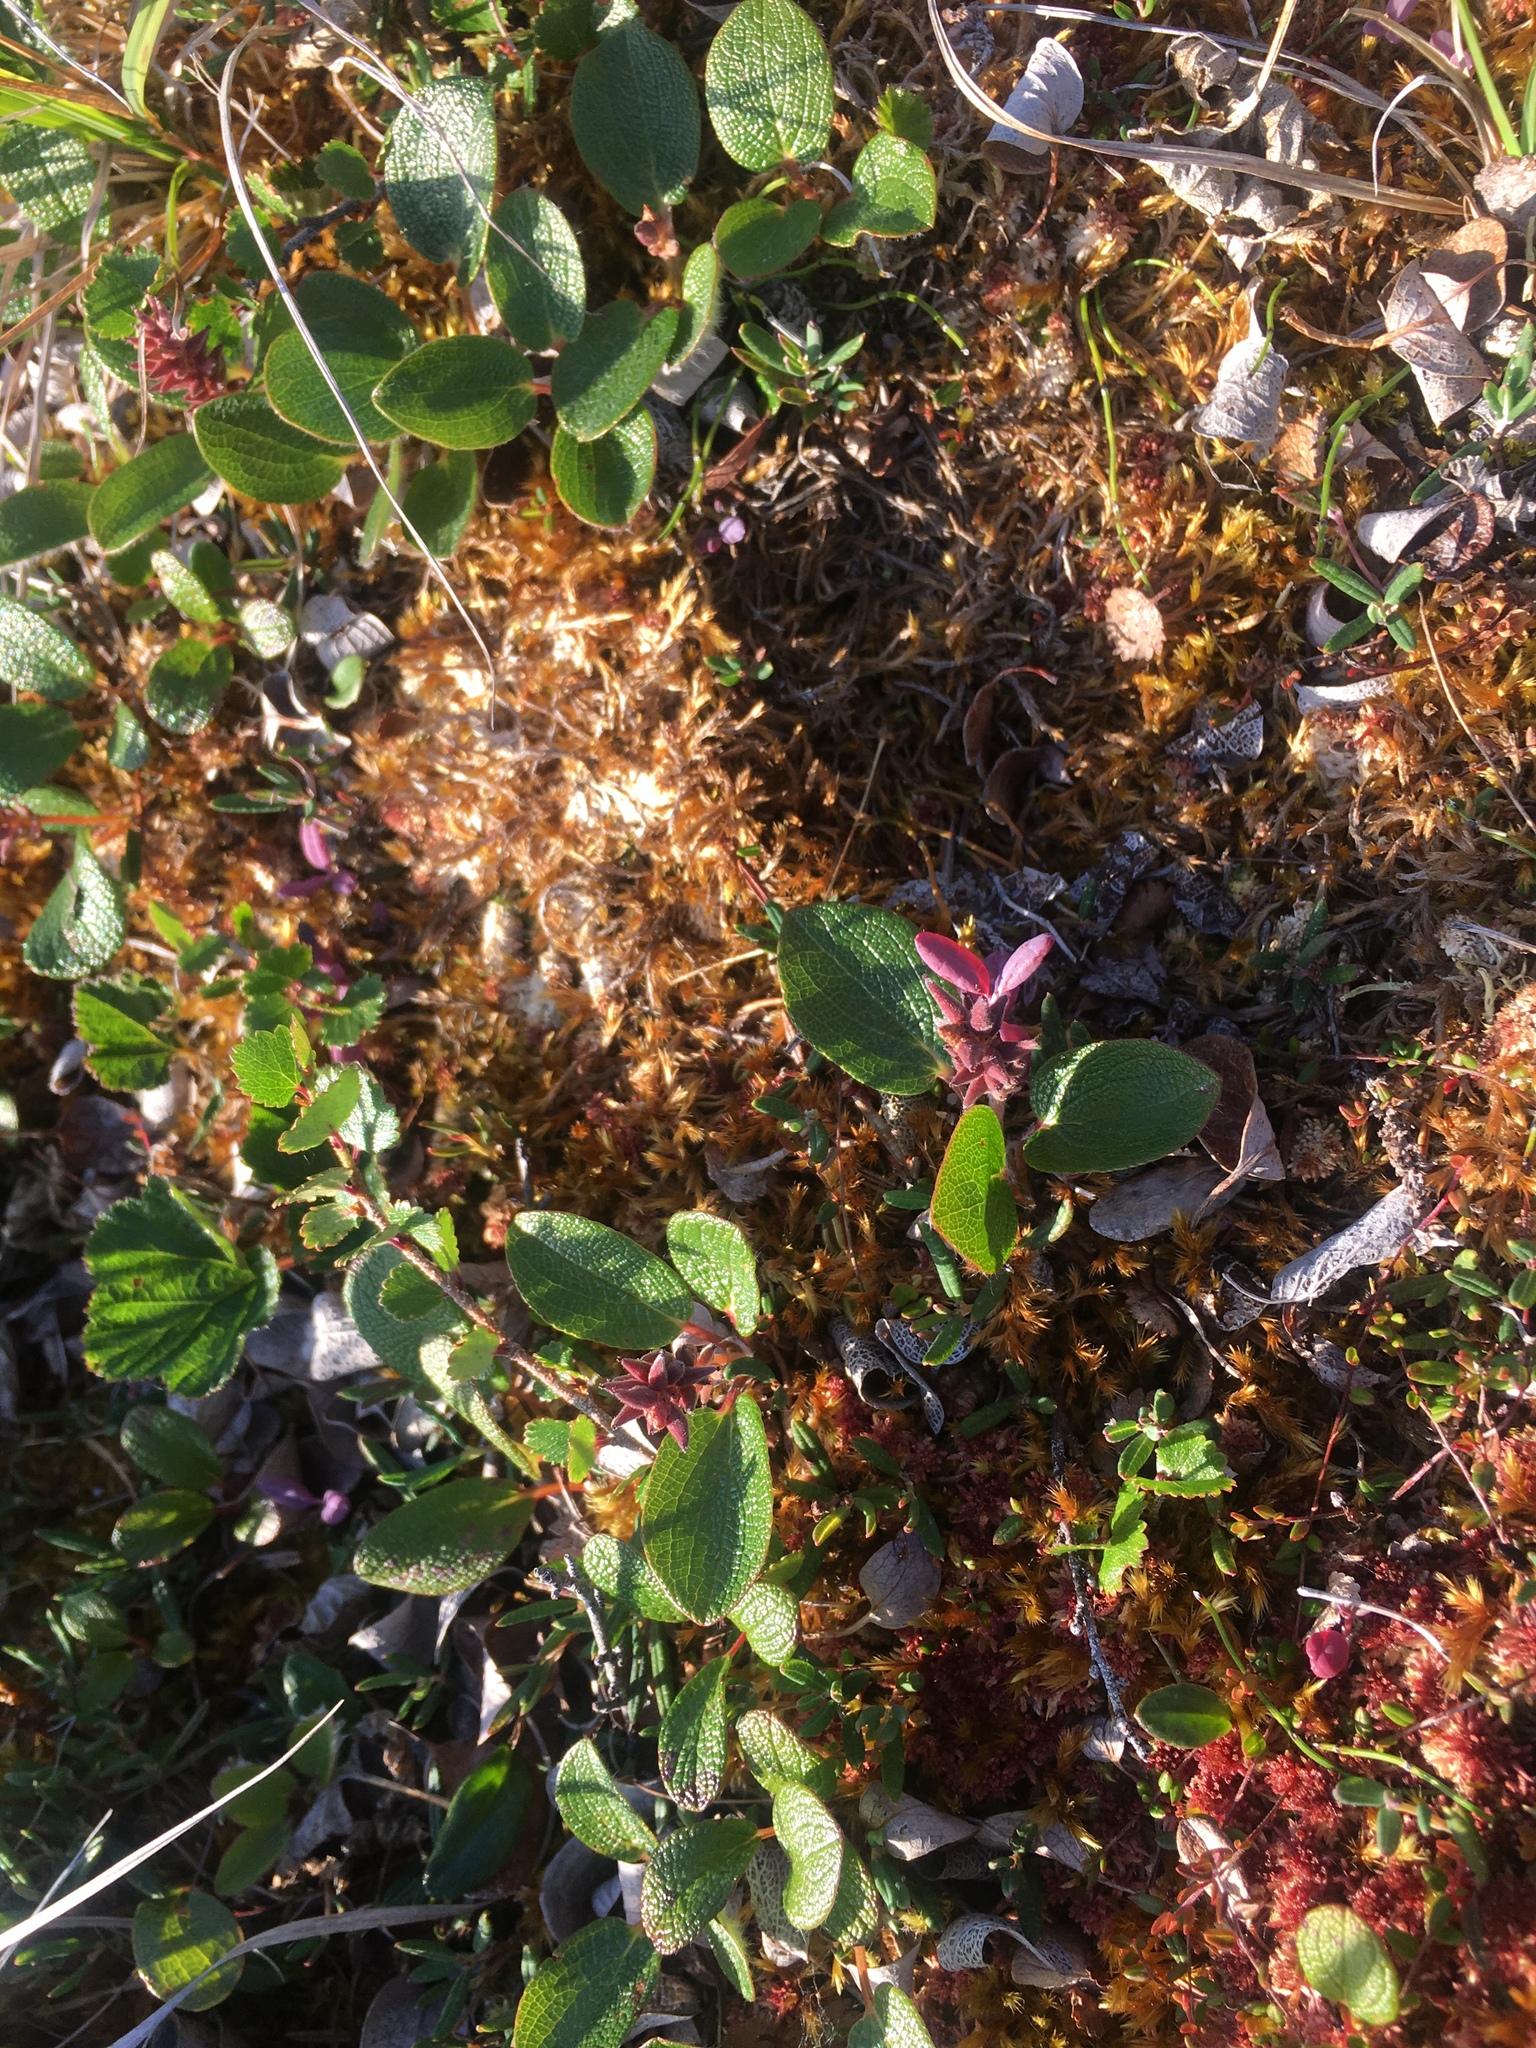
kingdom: Plantae
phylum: Tracheophyta
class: Magnoliopsida
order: Malpighiales
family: Salicaceae
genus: Salix
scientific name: Salix reticulata
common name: Net-leaved willow
